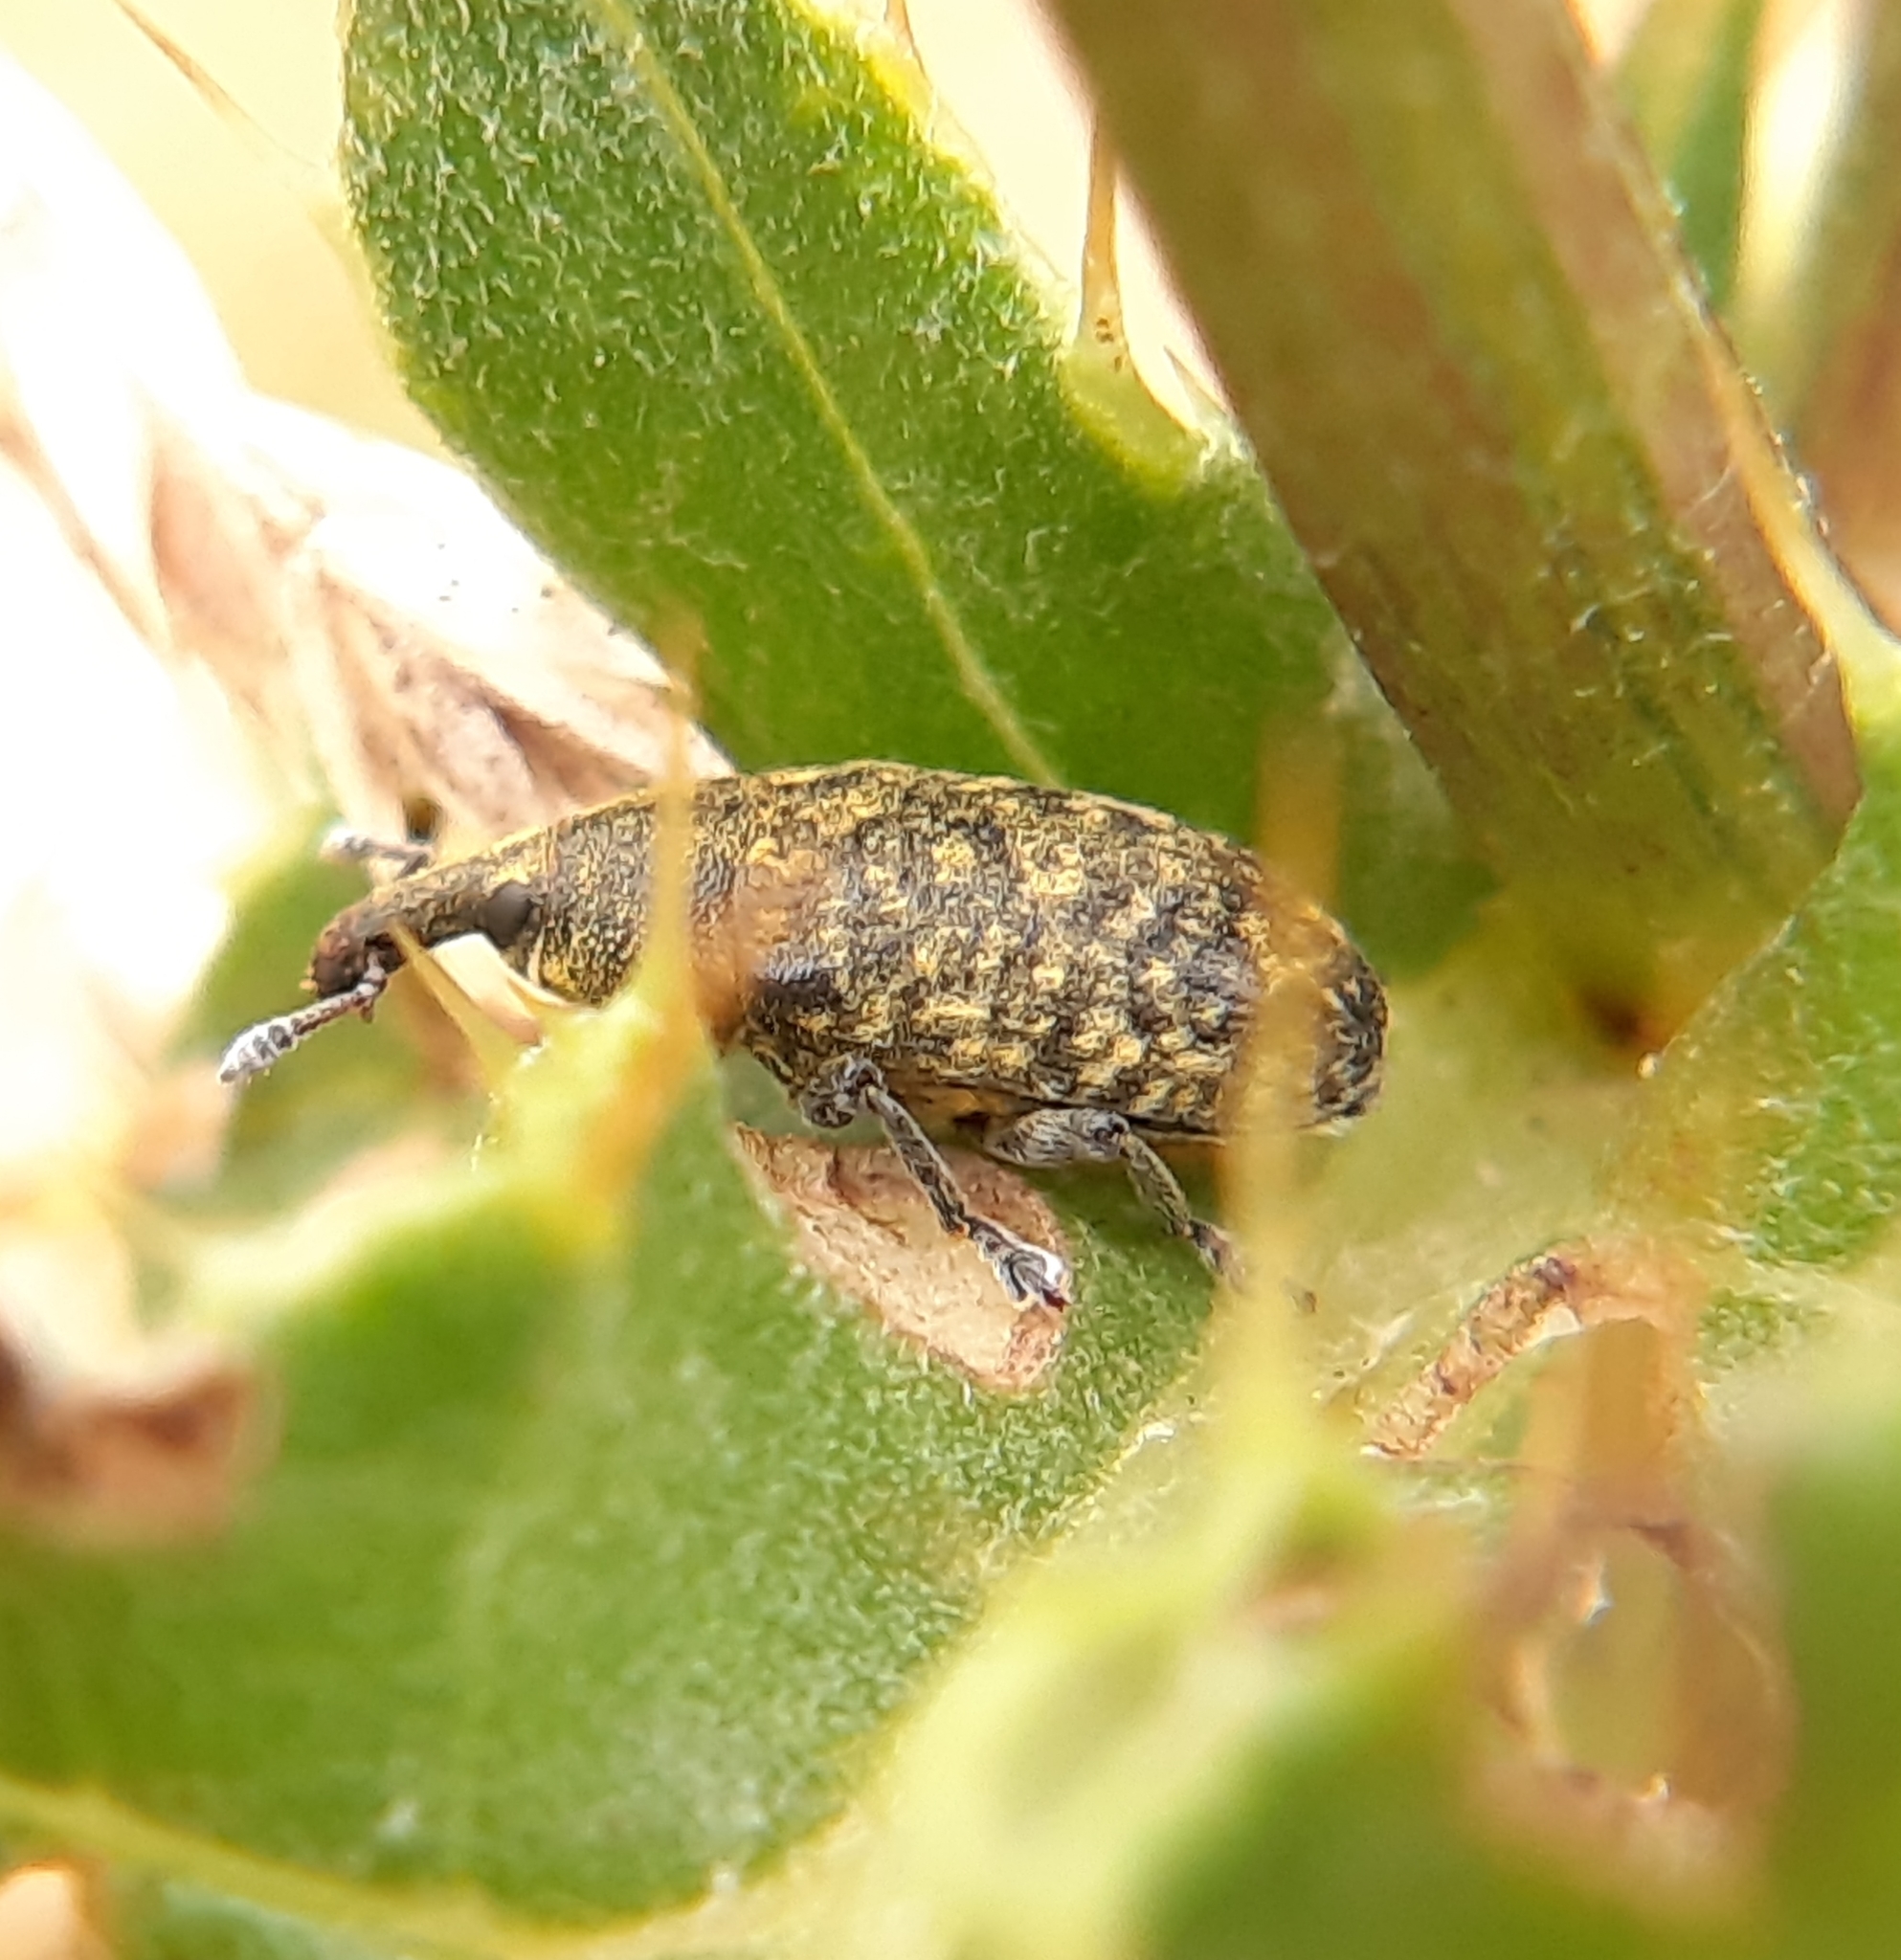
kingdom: Animalia
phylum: Arthropoda
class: Insecta
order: Coleoptera
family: Curculionidae
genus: Larinus
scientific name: Larinus carlinae
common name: Weevil
